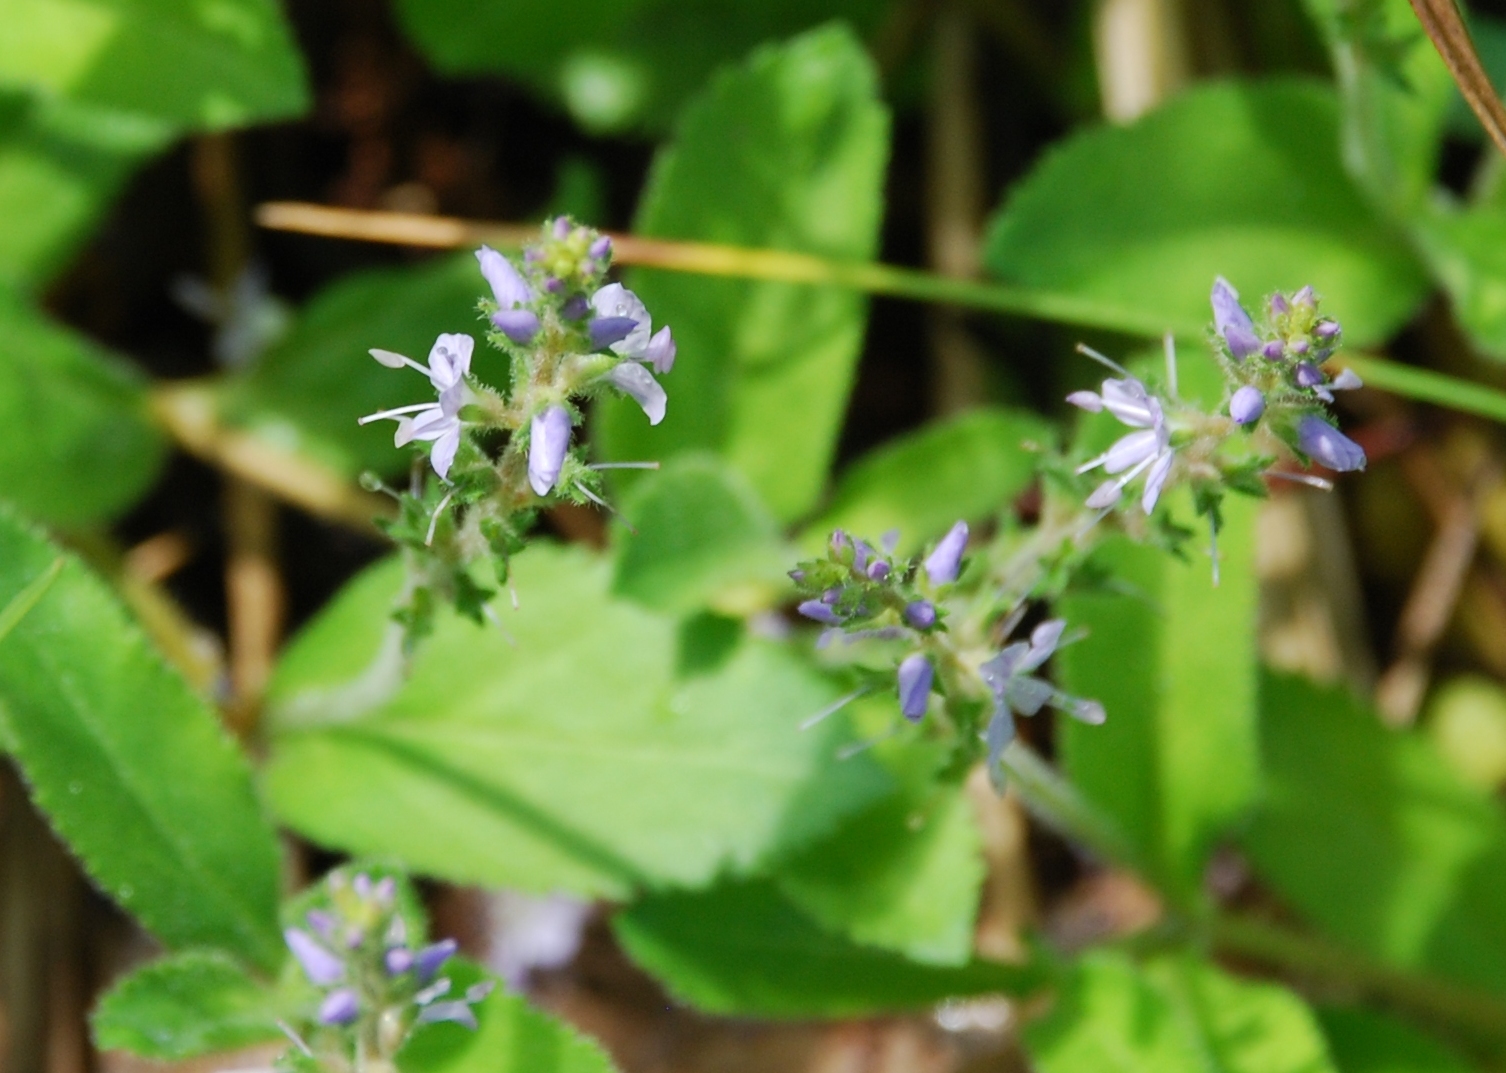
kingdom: Plantae
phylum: Tracheophyta
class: Magnoliopsida
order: Lamiales
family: Plantaginaceae
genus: Veronica
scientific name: Veronica officinalis
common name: Common speedwell
